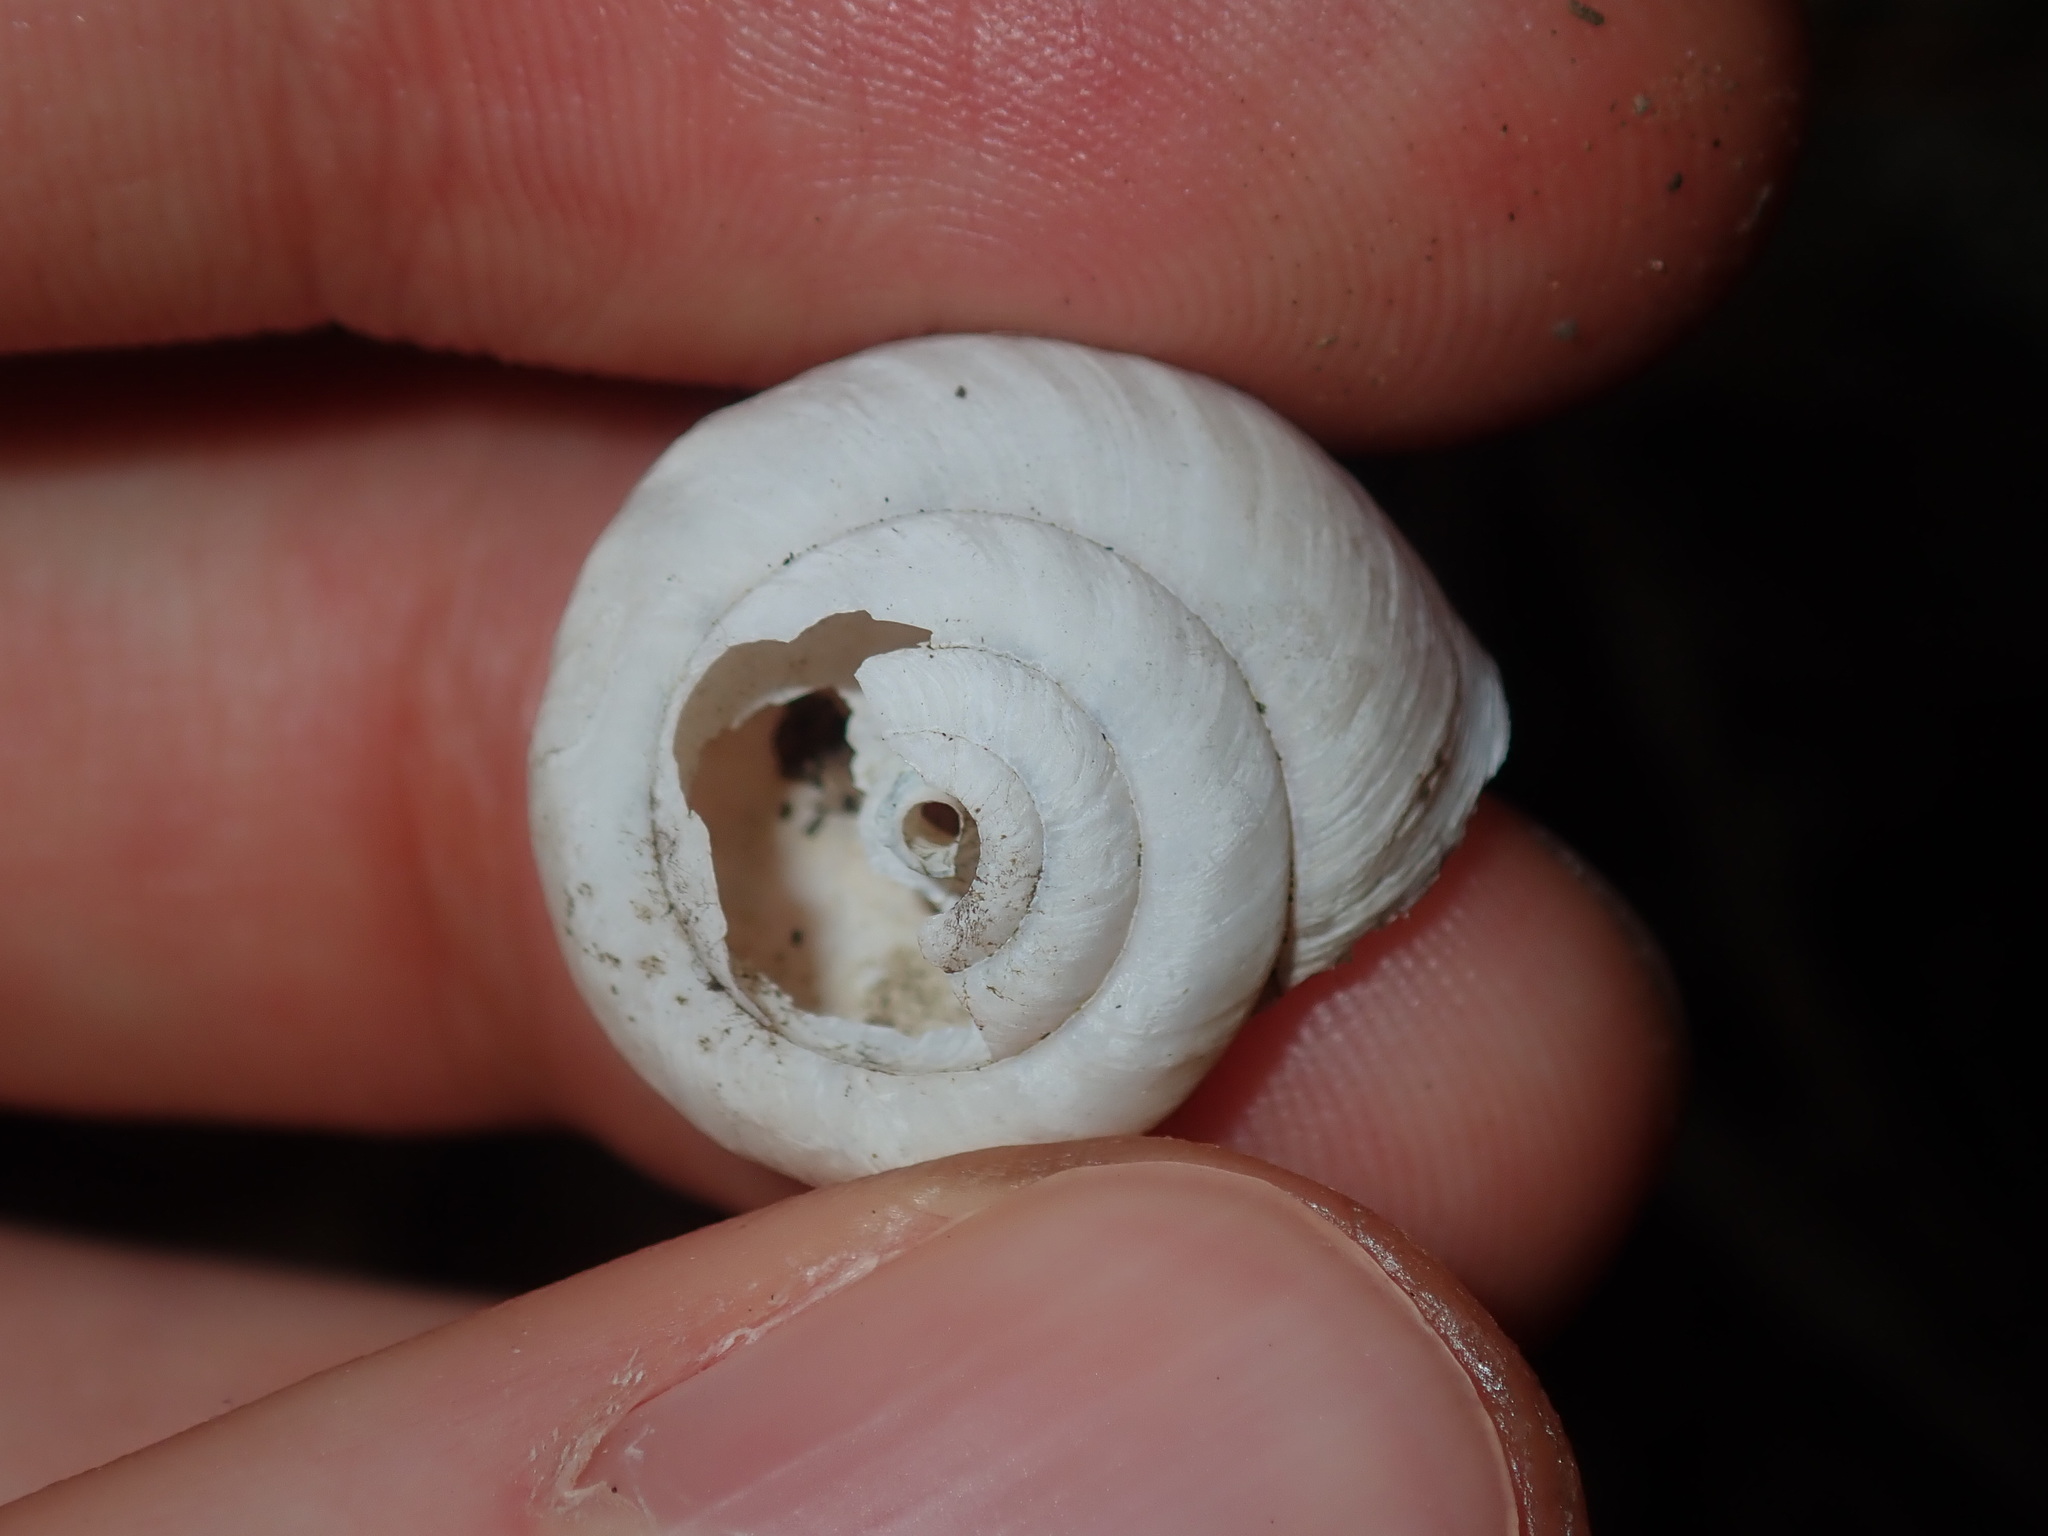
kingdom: Animalia
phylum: Mollusca
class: Gastropoda
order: Stylommatophora
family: Camaenidae
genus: Sauroconcha
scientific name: Sauroconcha sheai
